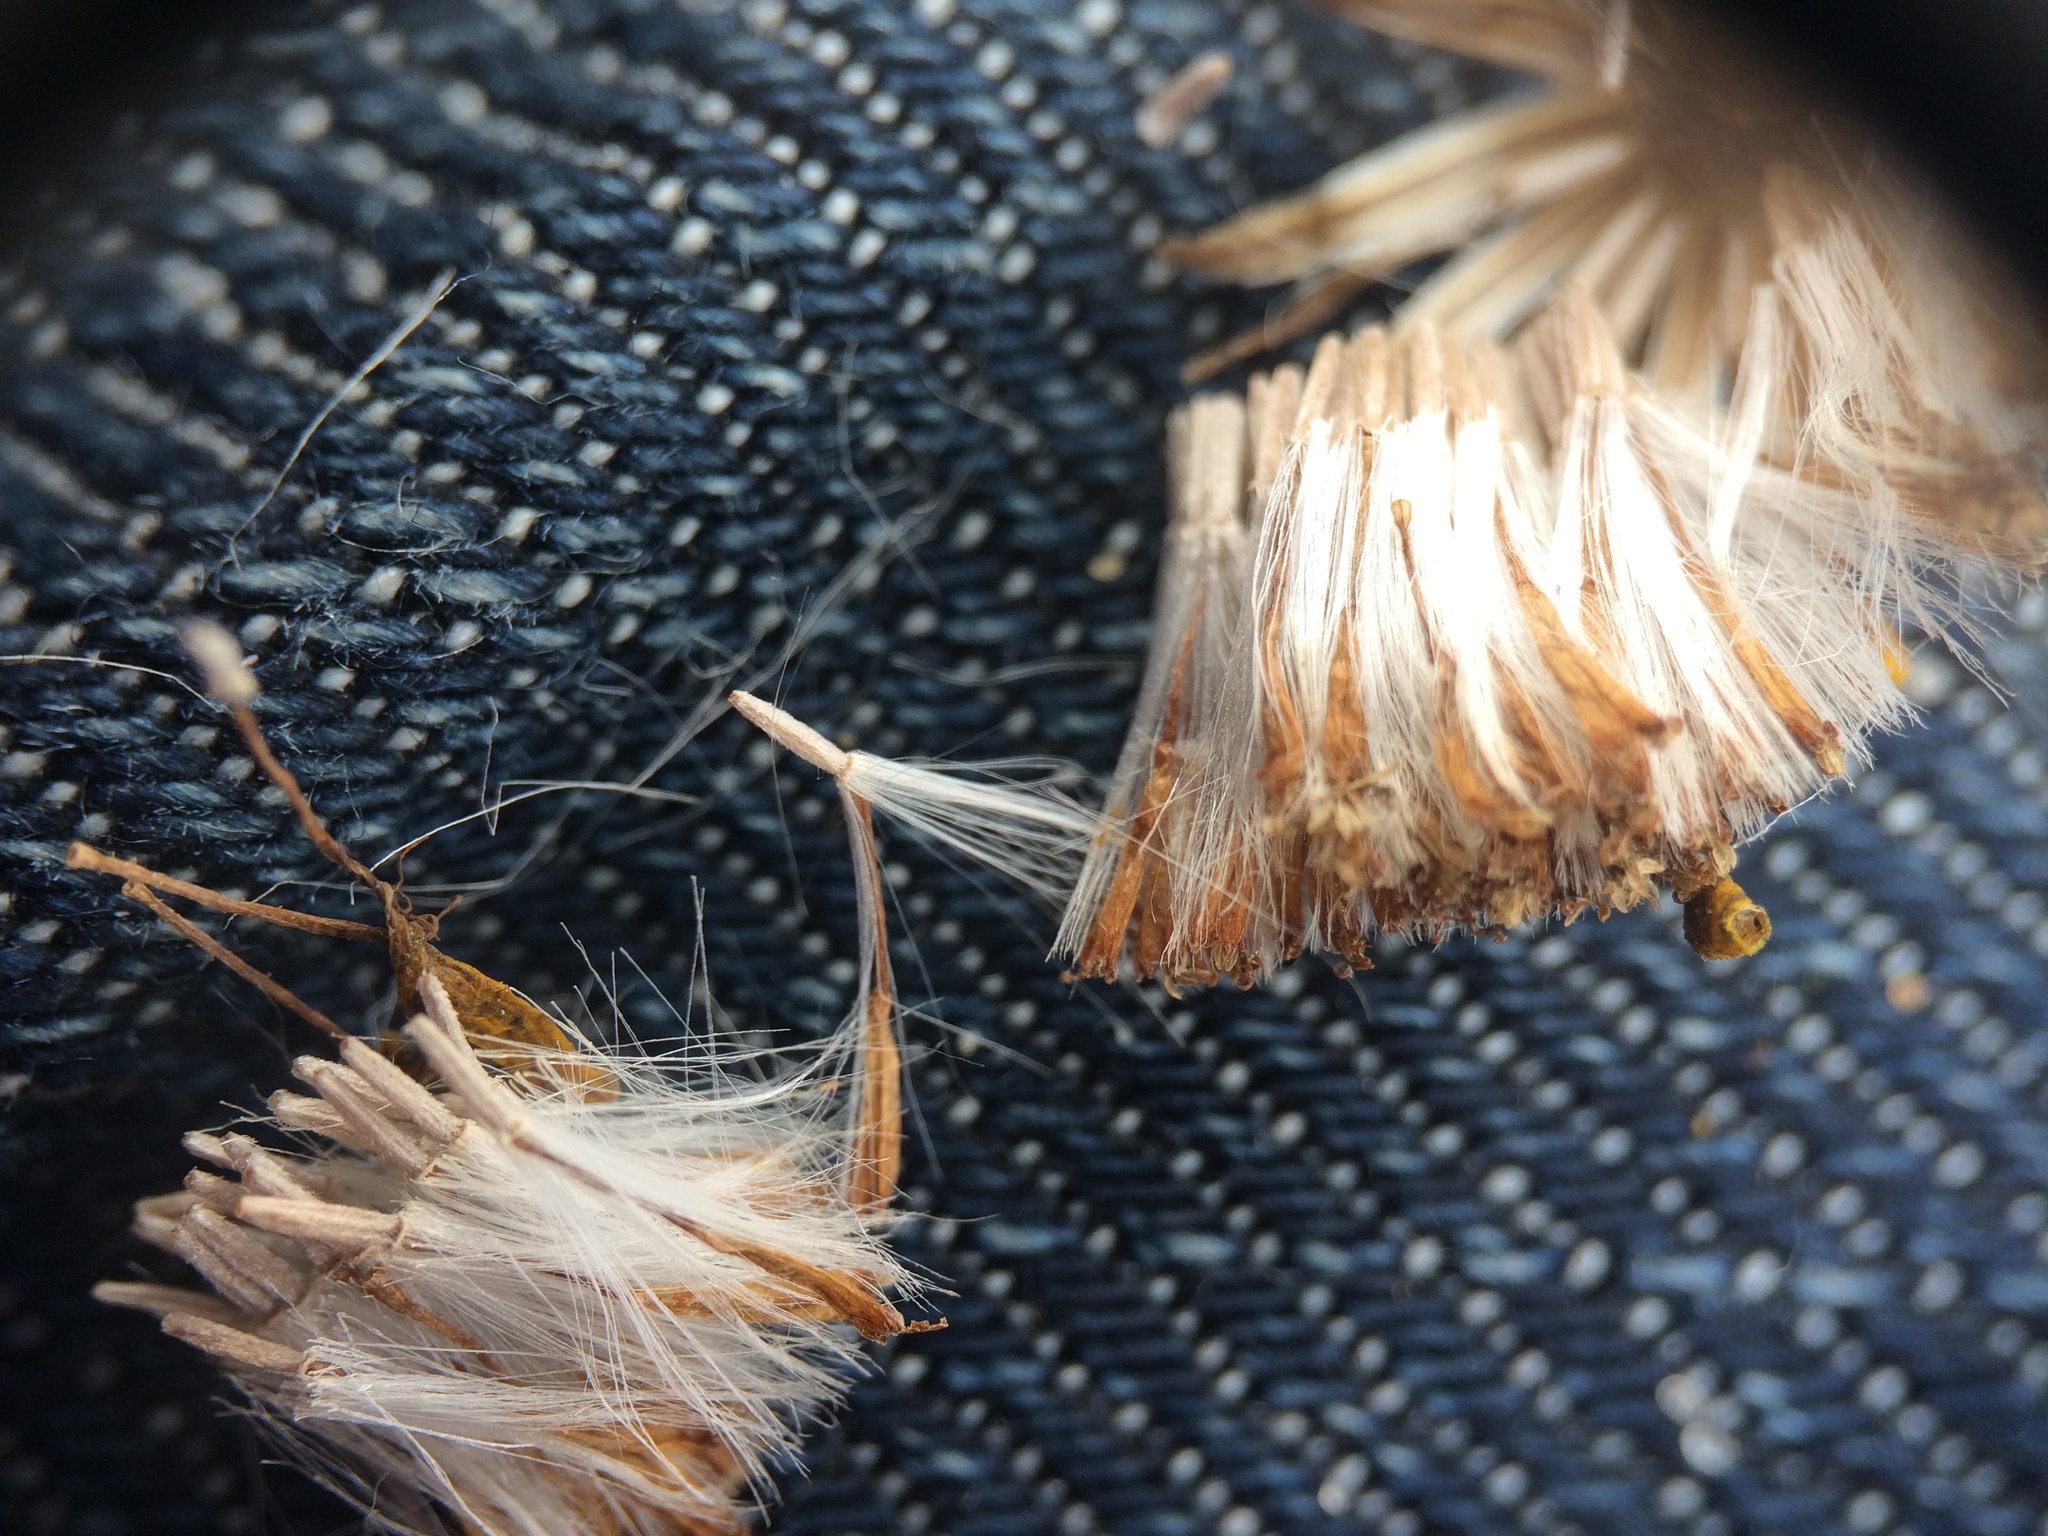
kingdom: Plantae
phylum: Tracheophyta
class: Magnoliopsida
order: Asterales
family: Asteraceae
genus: Senecio
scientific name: Senecio inaequidens
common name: Narrow-leaved ragwort
